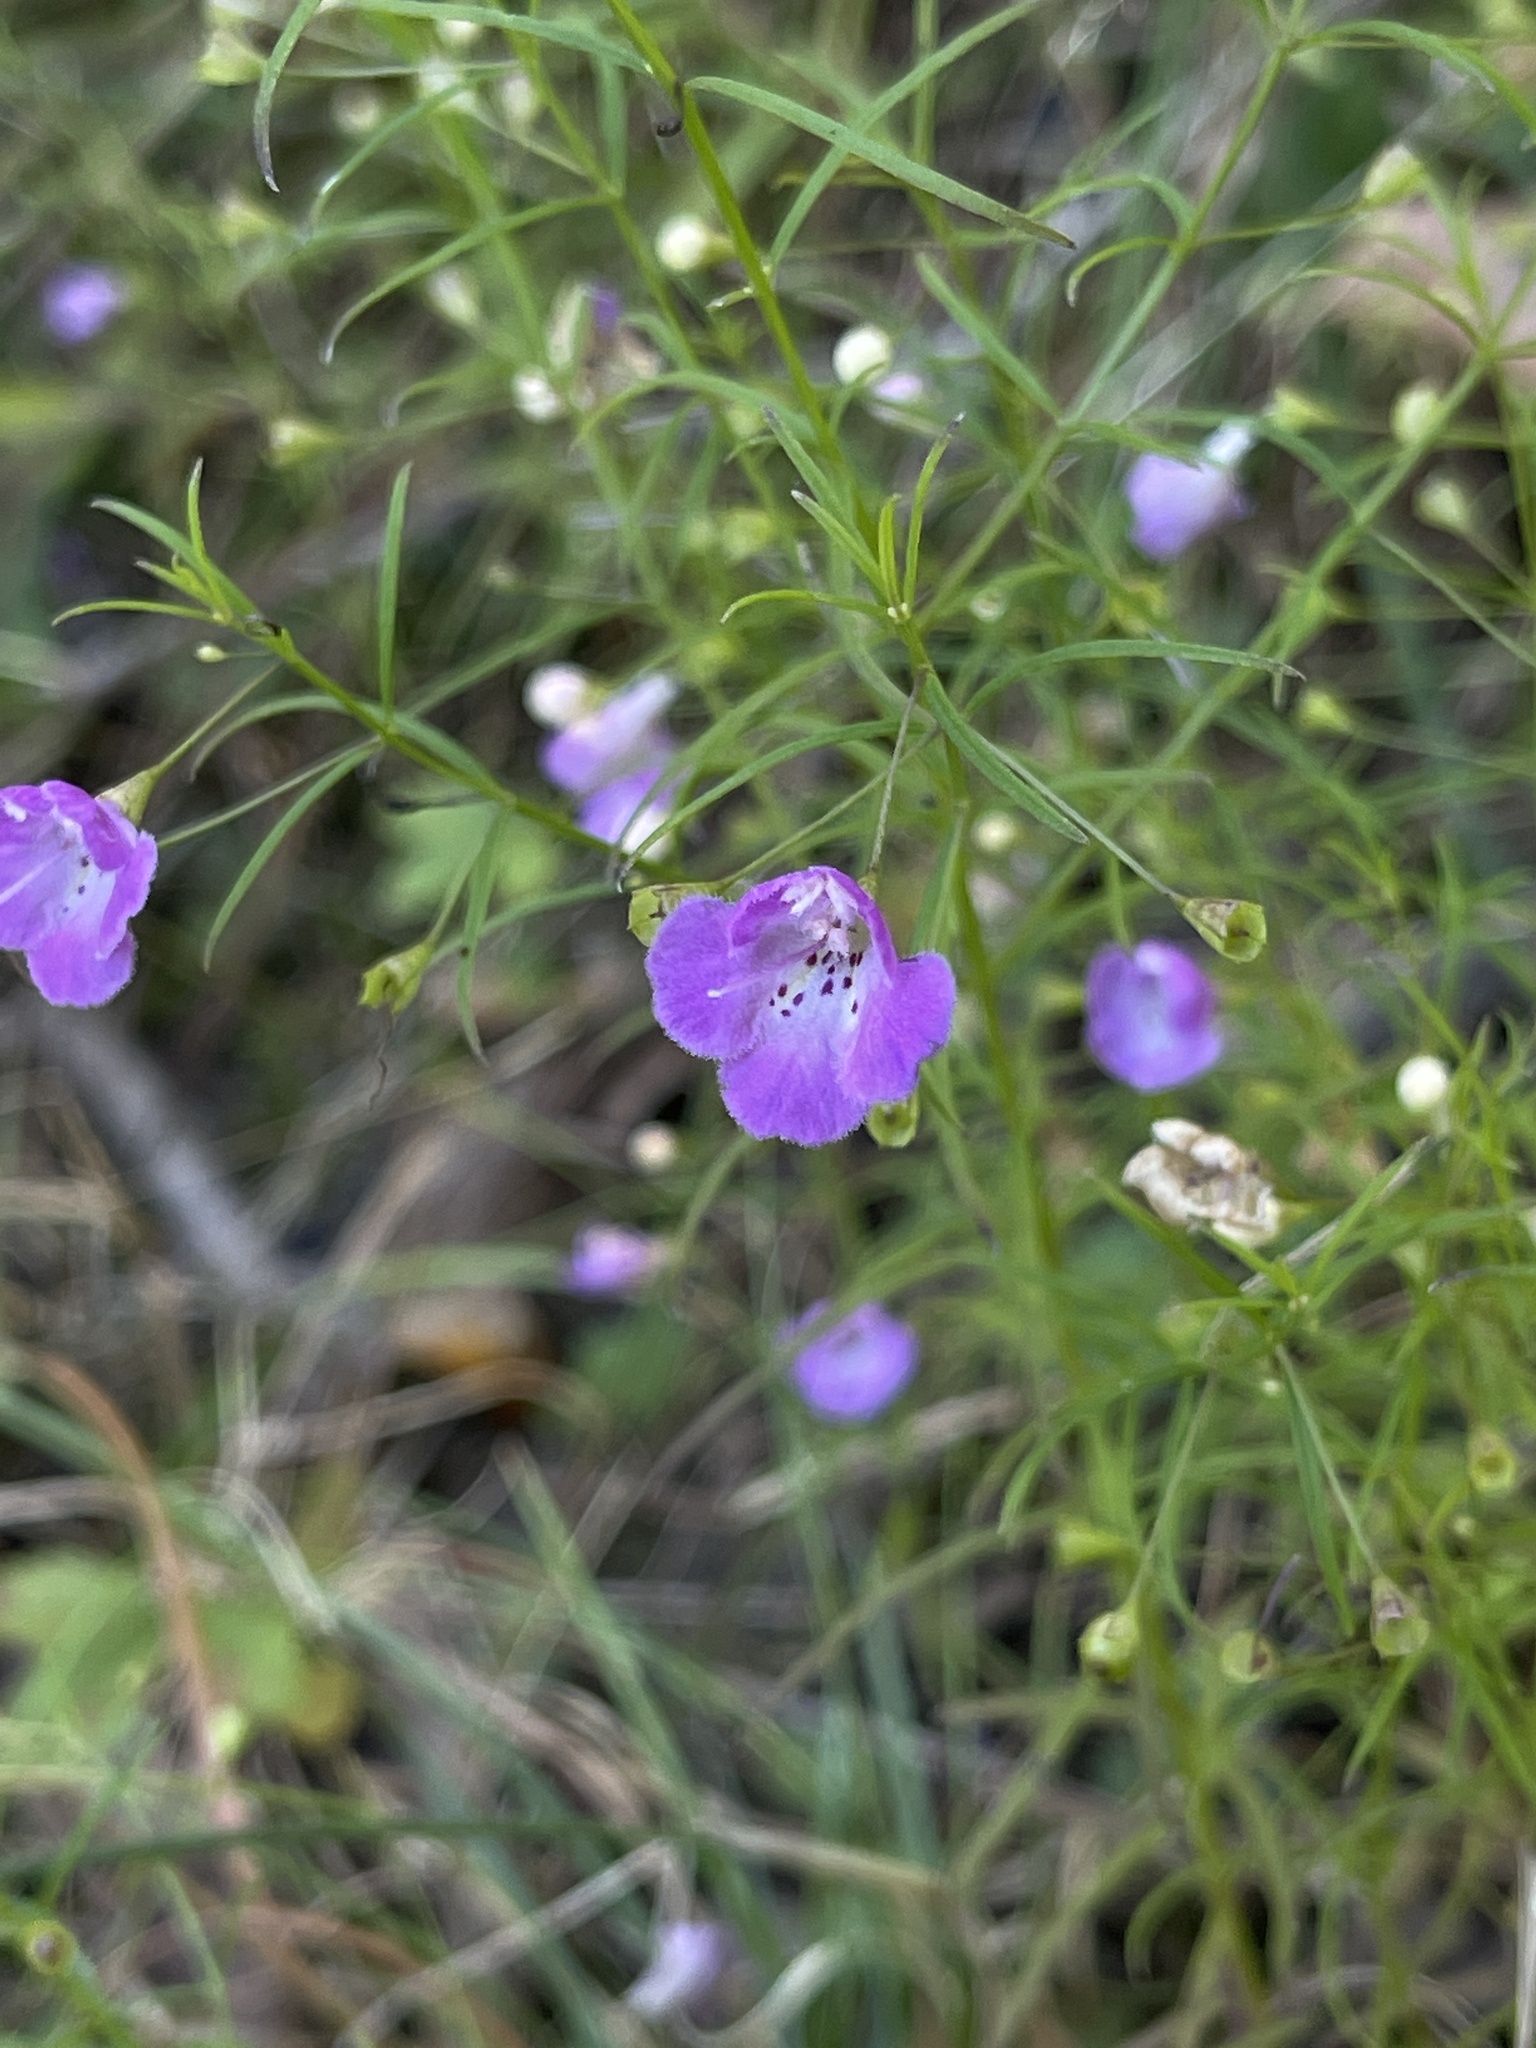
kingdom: Plantae
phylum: Tracheophyta
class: Magnoliopsida
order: Lamiales
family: Orobanchaceae
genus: Agalinis
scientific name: Agalinis tenuifolia
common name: Slender agalinis
